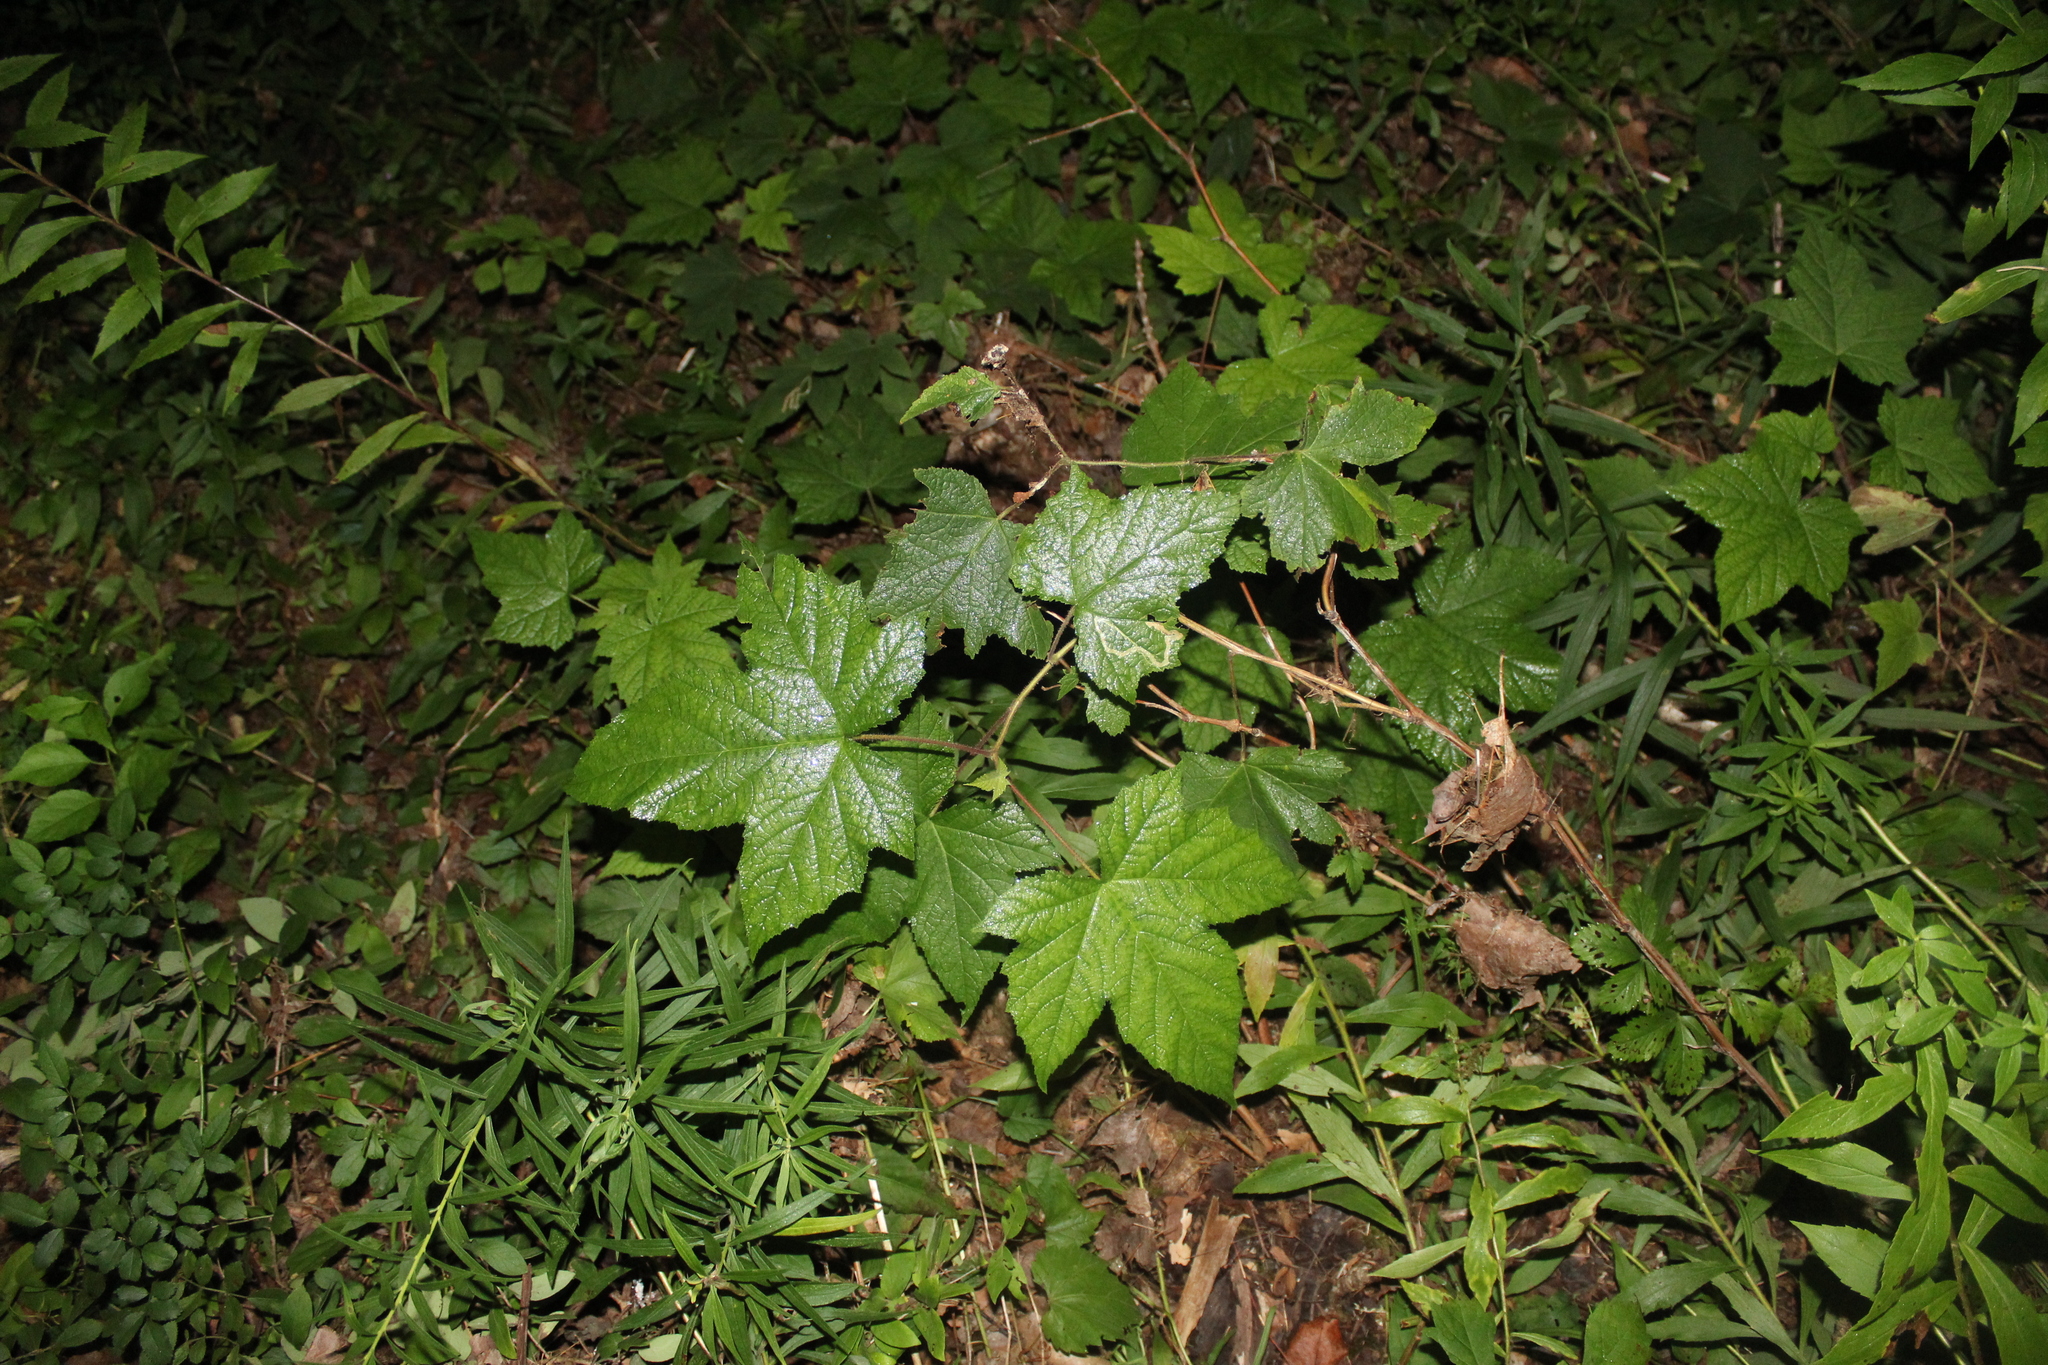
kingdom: Plantae
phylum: Tracheophyta
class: Magnoliopsida
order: Rosales
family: Rosaceae
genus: Rubus
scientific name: Rubus odoratus
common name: Purple-flowered raspberry
